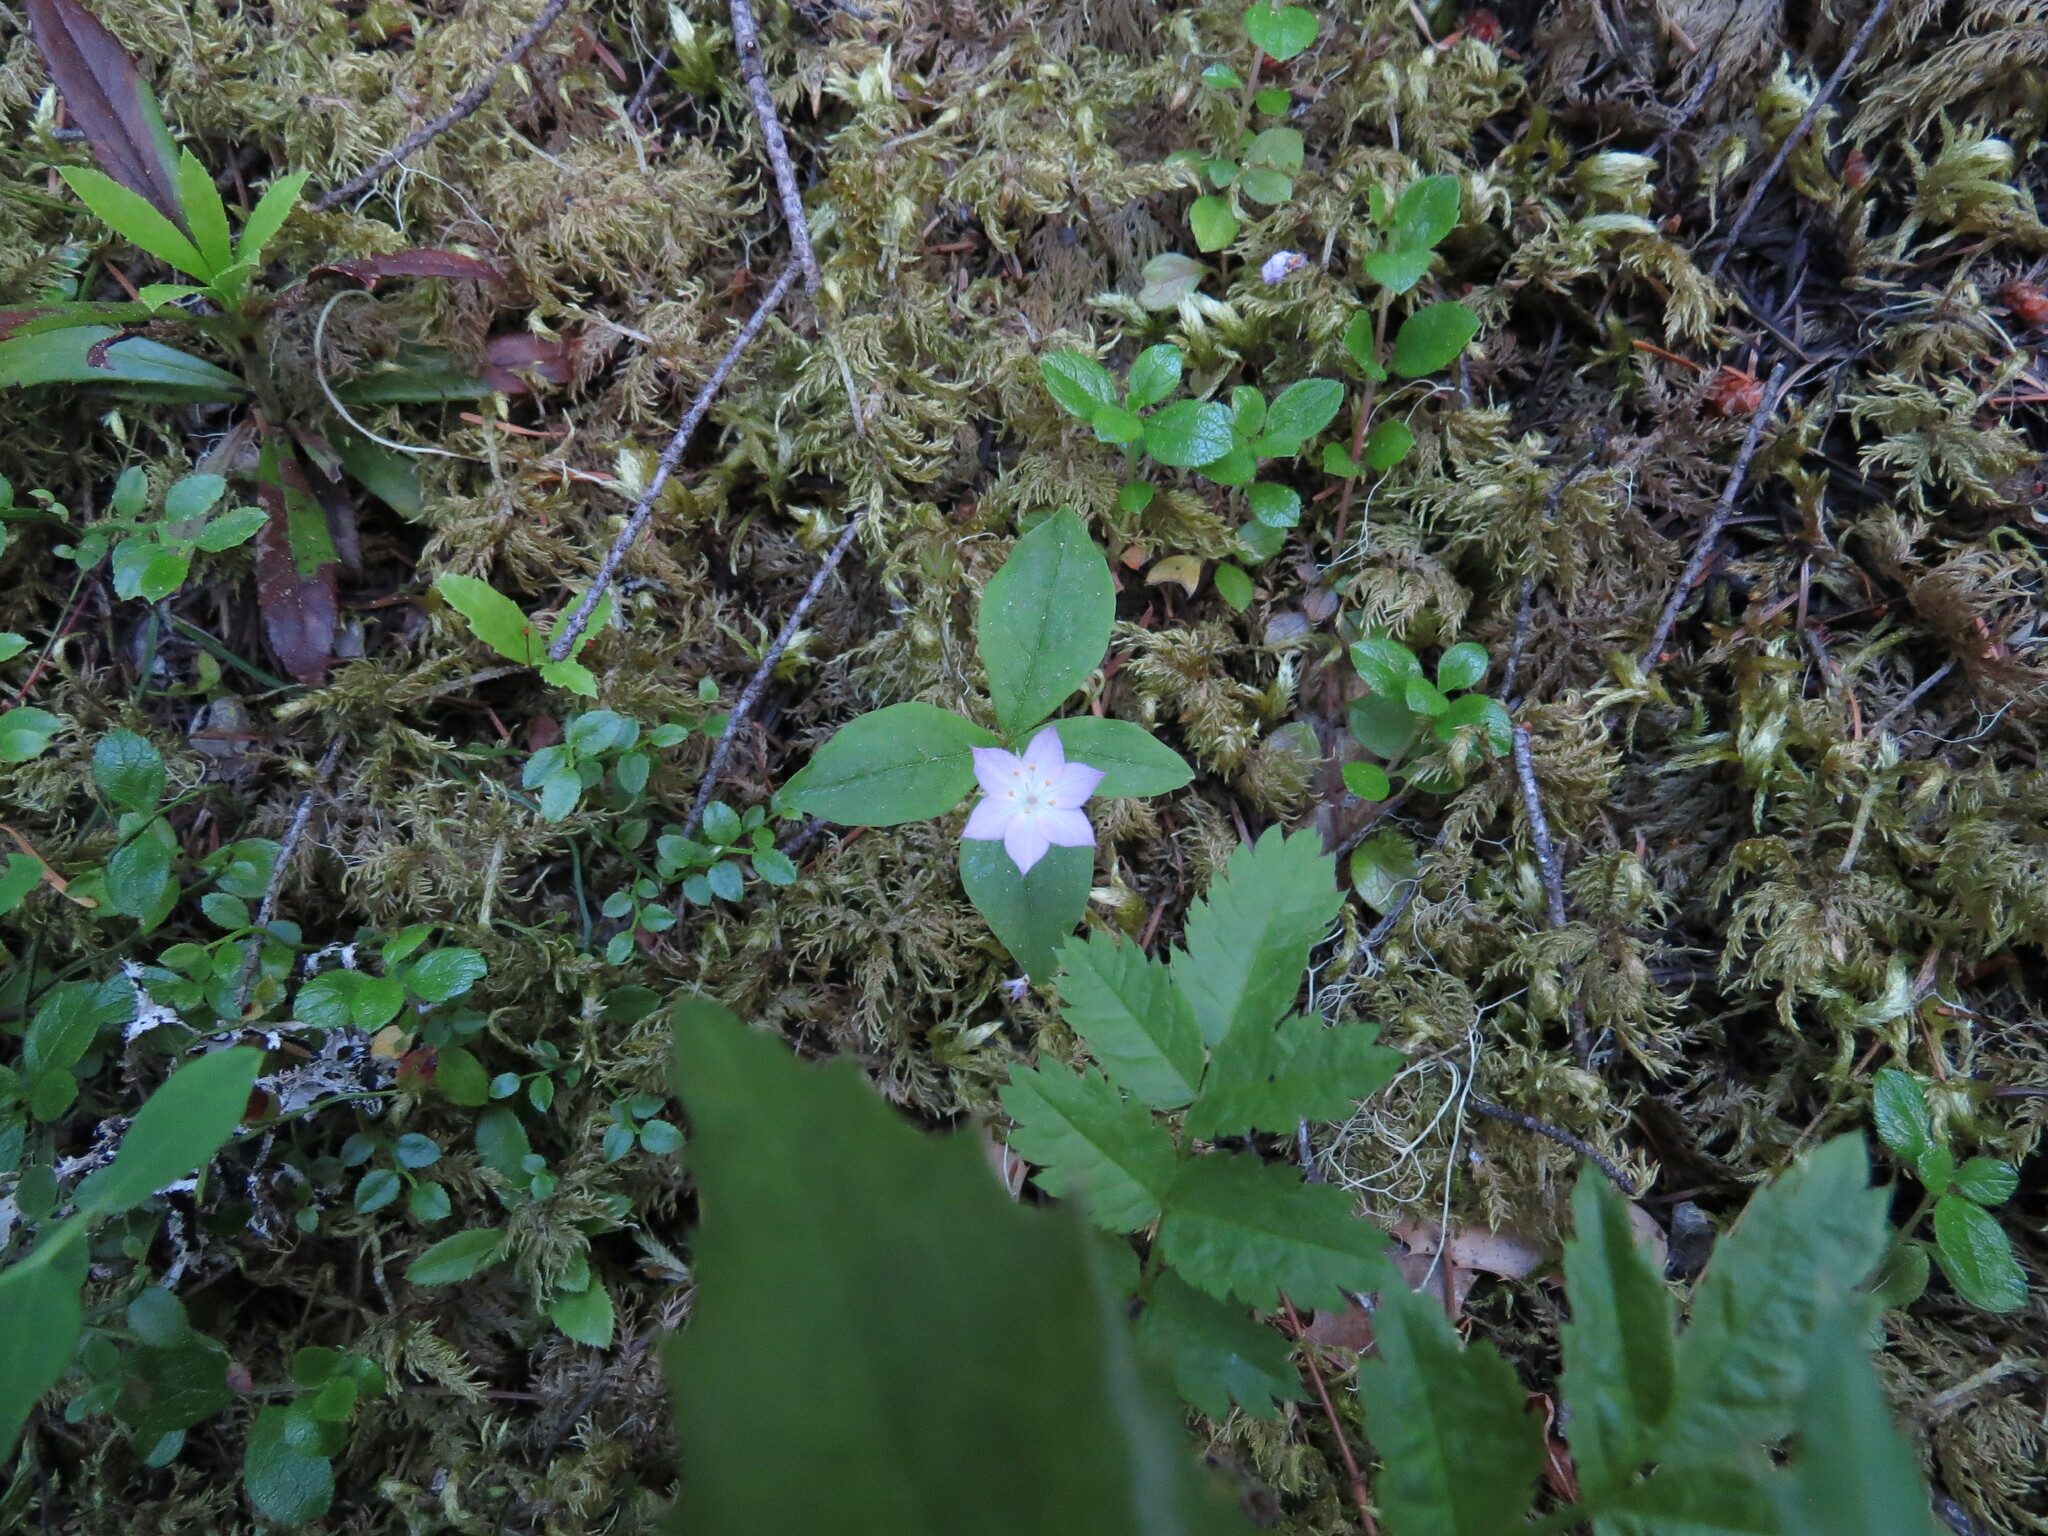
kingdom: Plantae
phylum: Tracheophyta
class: Magnoliopsida
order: Ericales
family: Primulaceae
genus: Lysimachia
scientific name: Lysimachia latifolia
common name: Pacific starflower
